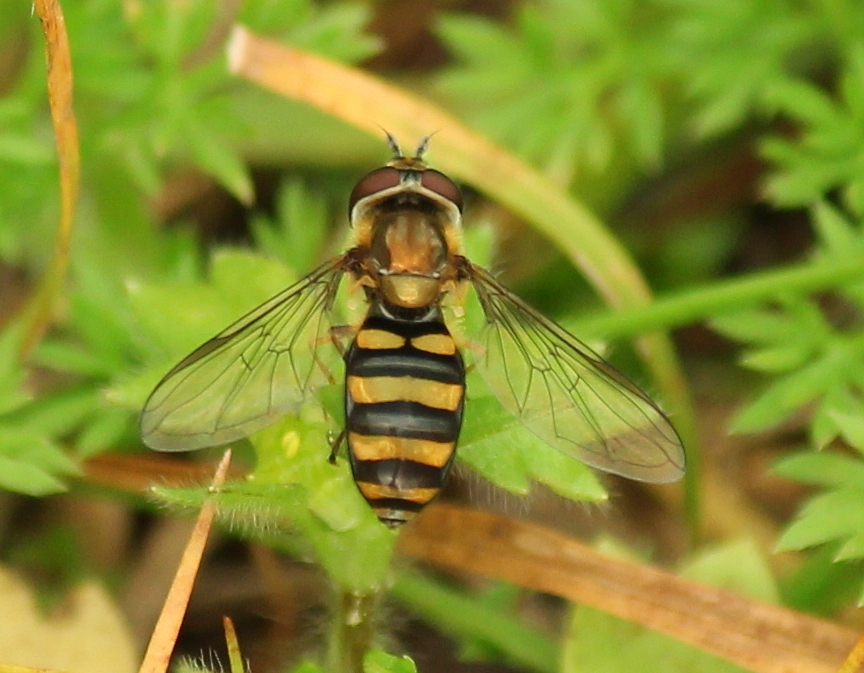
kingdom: Animalia
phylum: Arthropoda
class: Insecta
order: Diptera
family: Syrphidae
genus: Eupeodes
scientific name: Eupeodes
